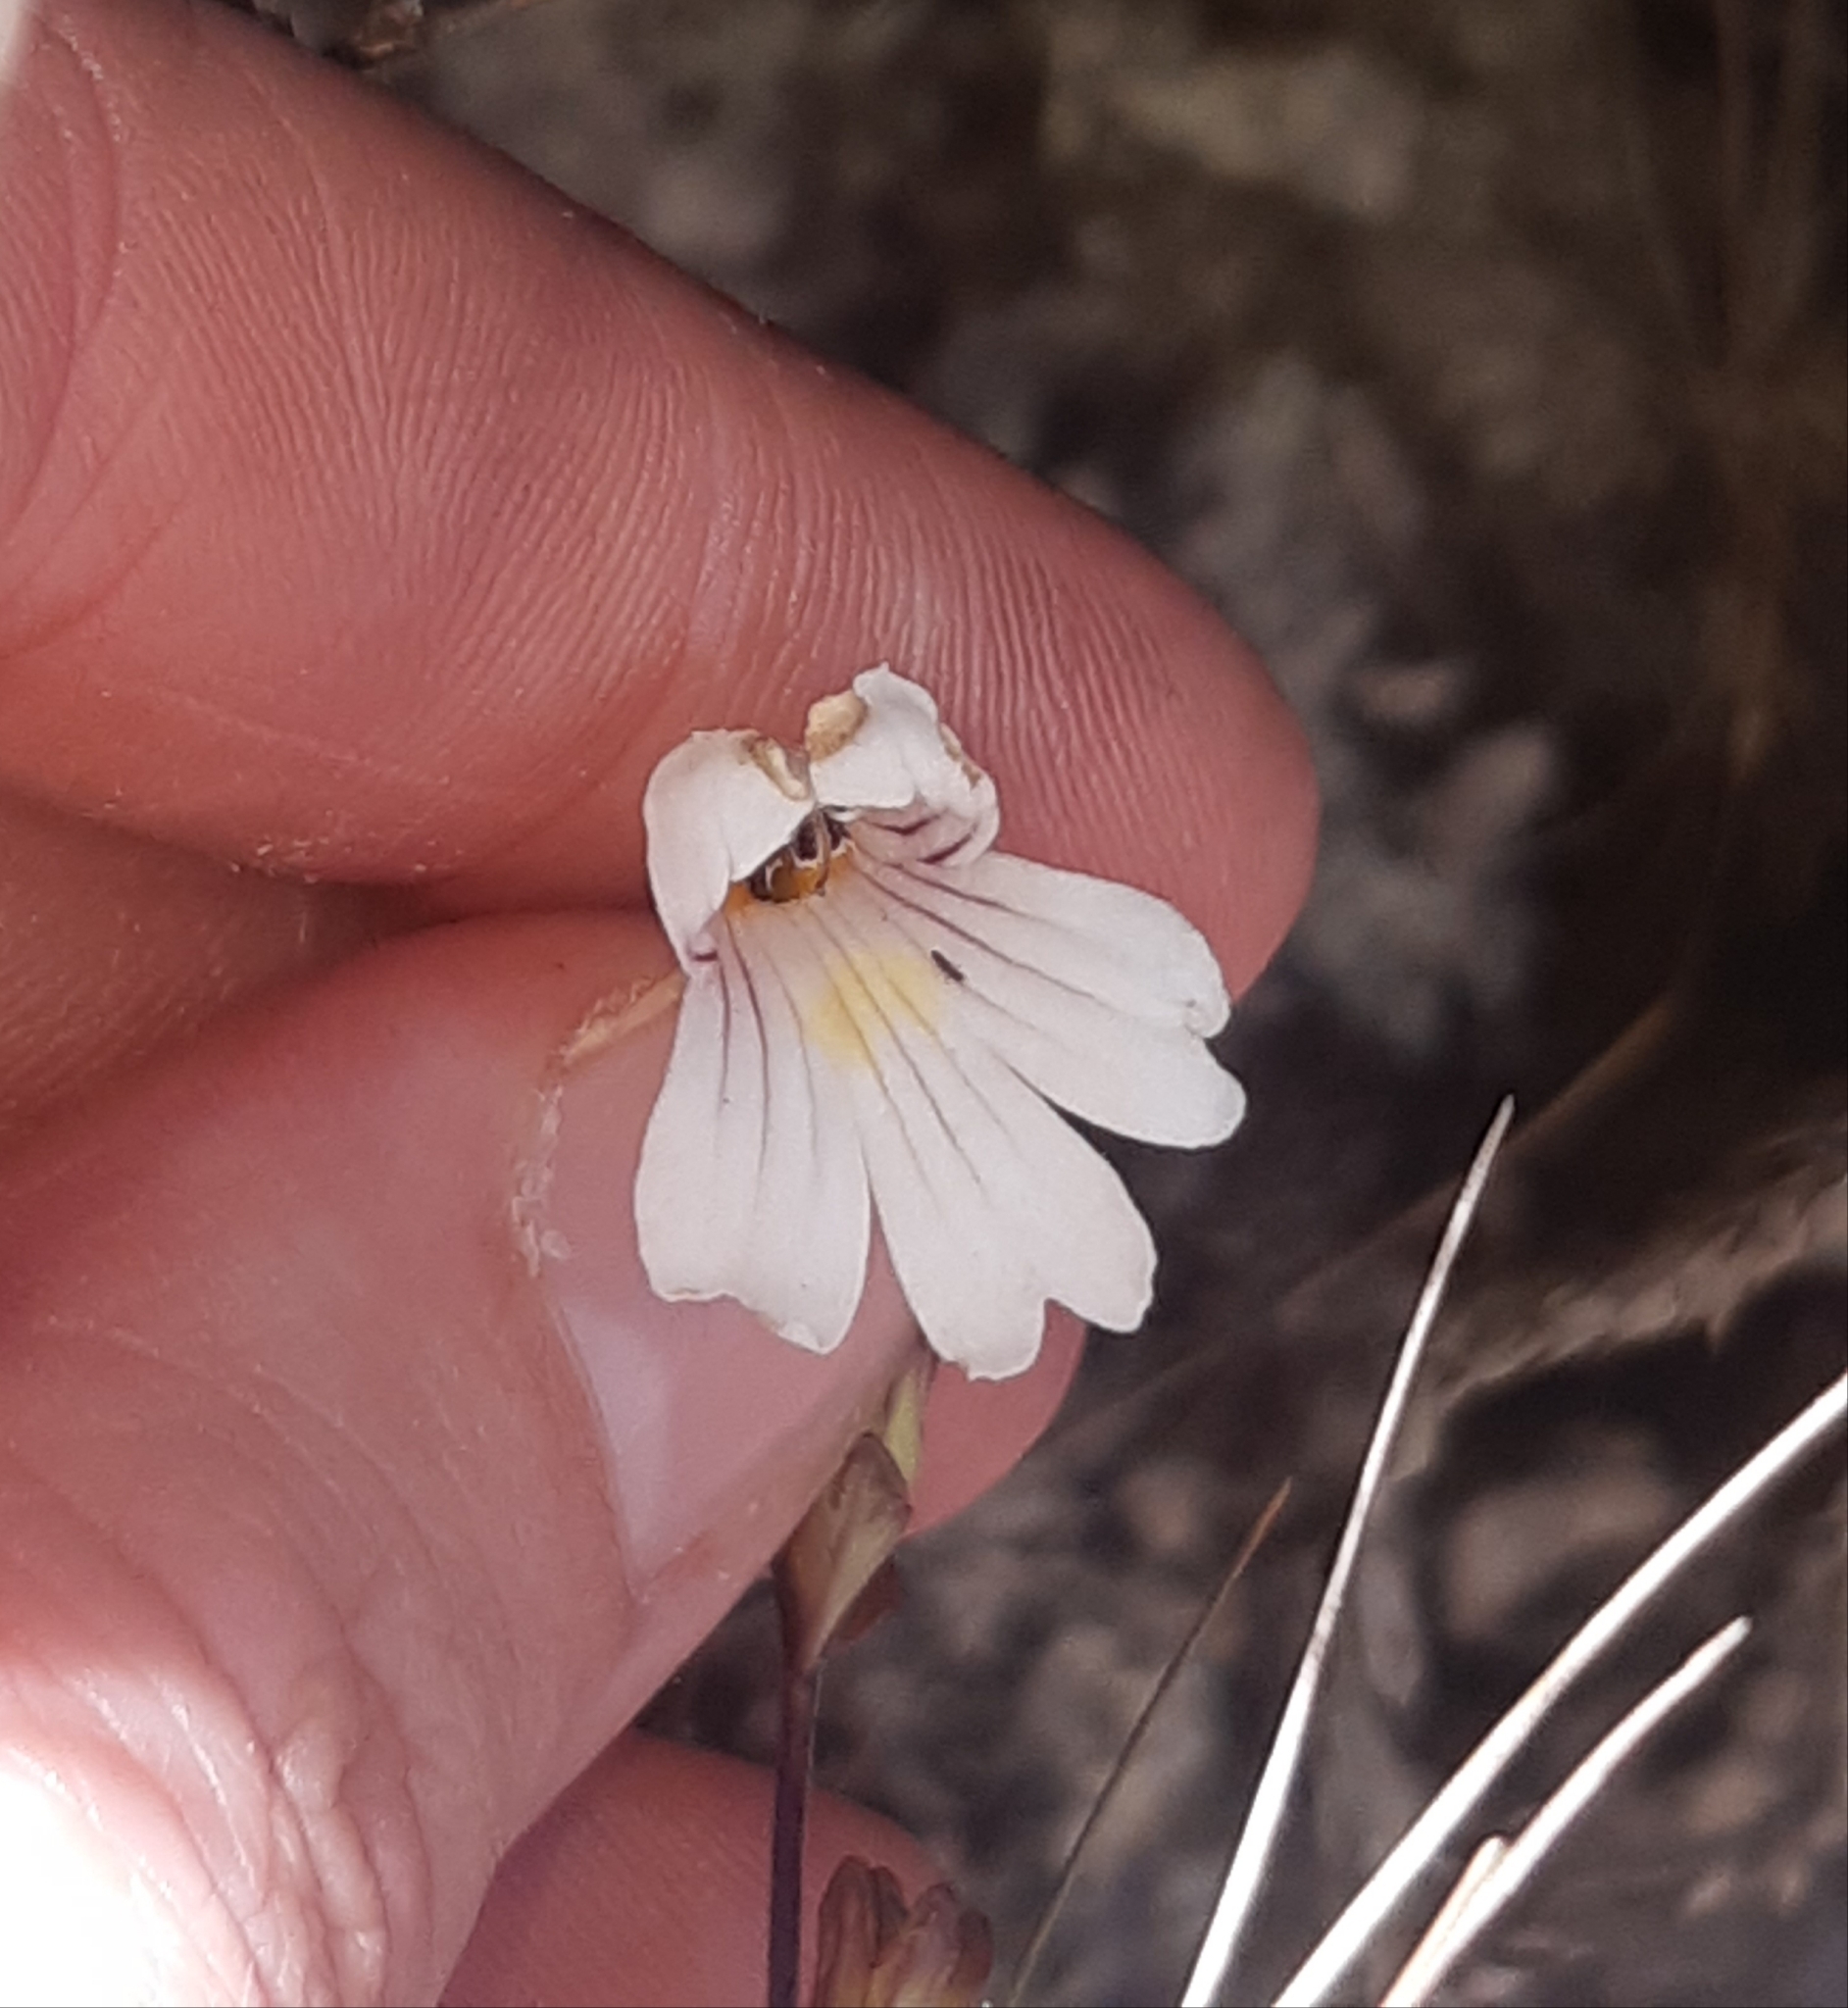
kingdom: Plantae
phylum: Tracheophyta
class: Magnoliopsida
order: Lamiales
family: Orobanchaceae
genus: Euphrasia
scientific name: Euphrasia cuneata
